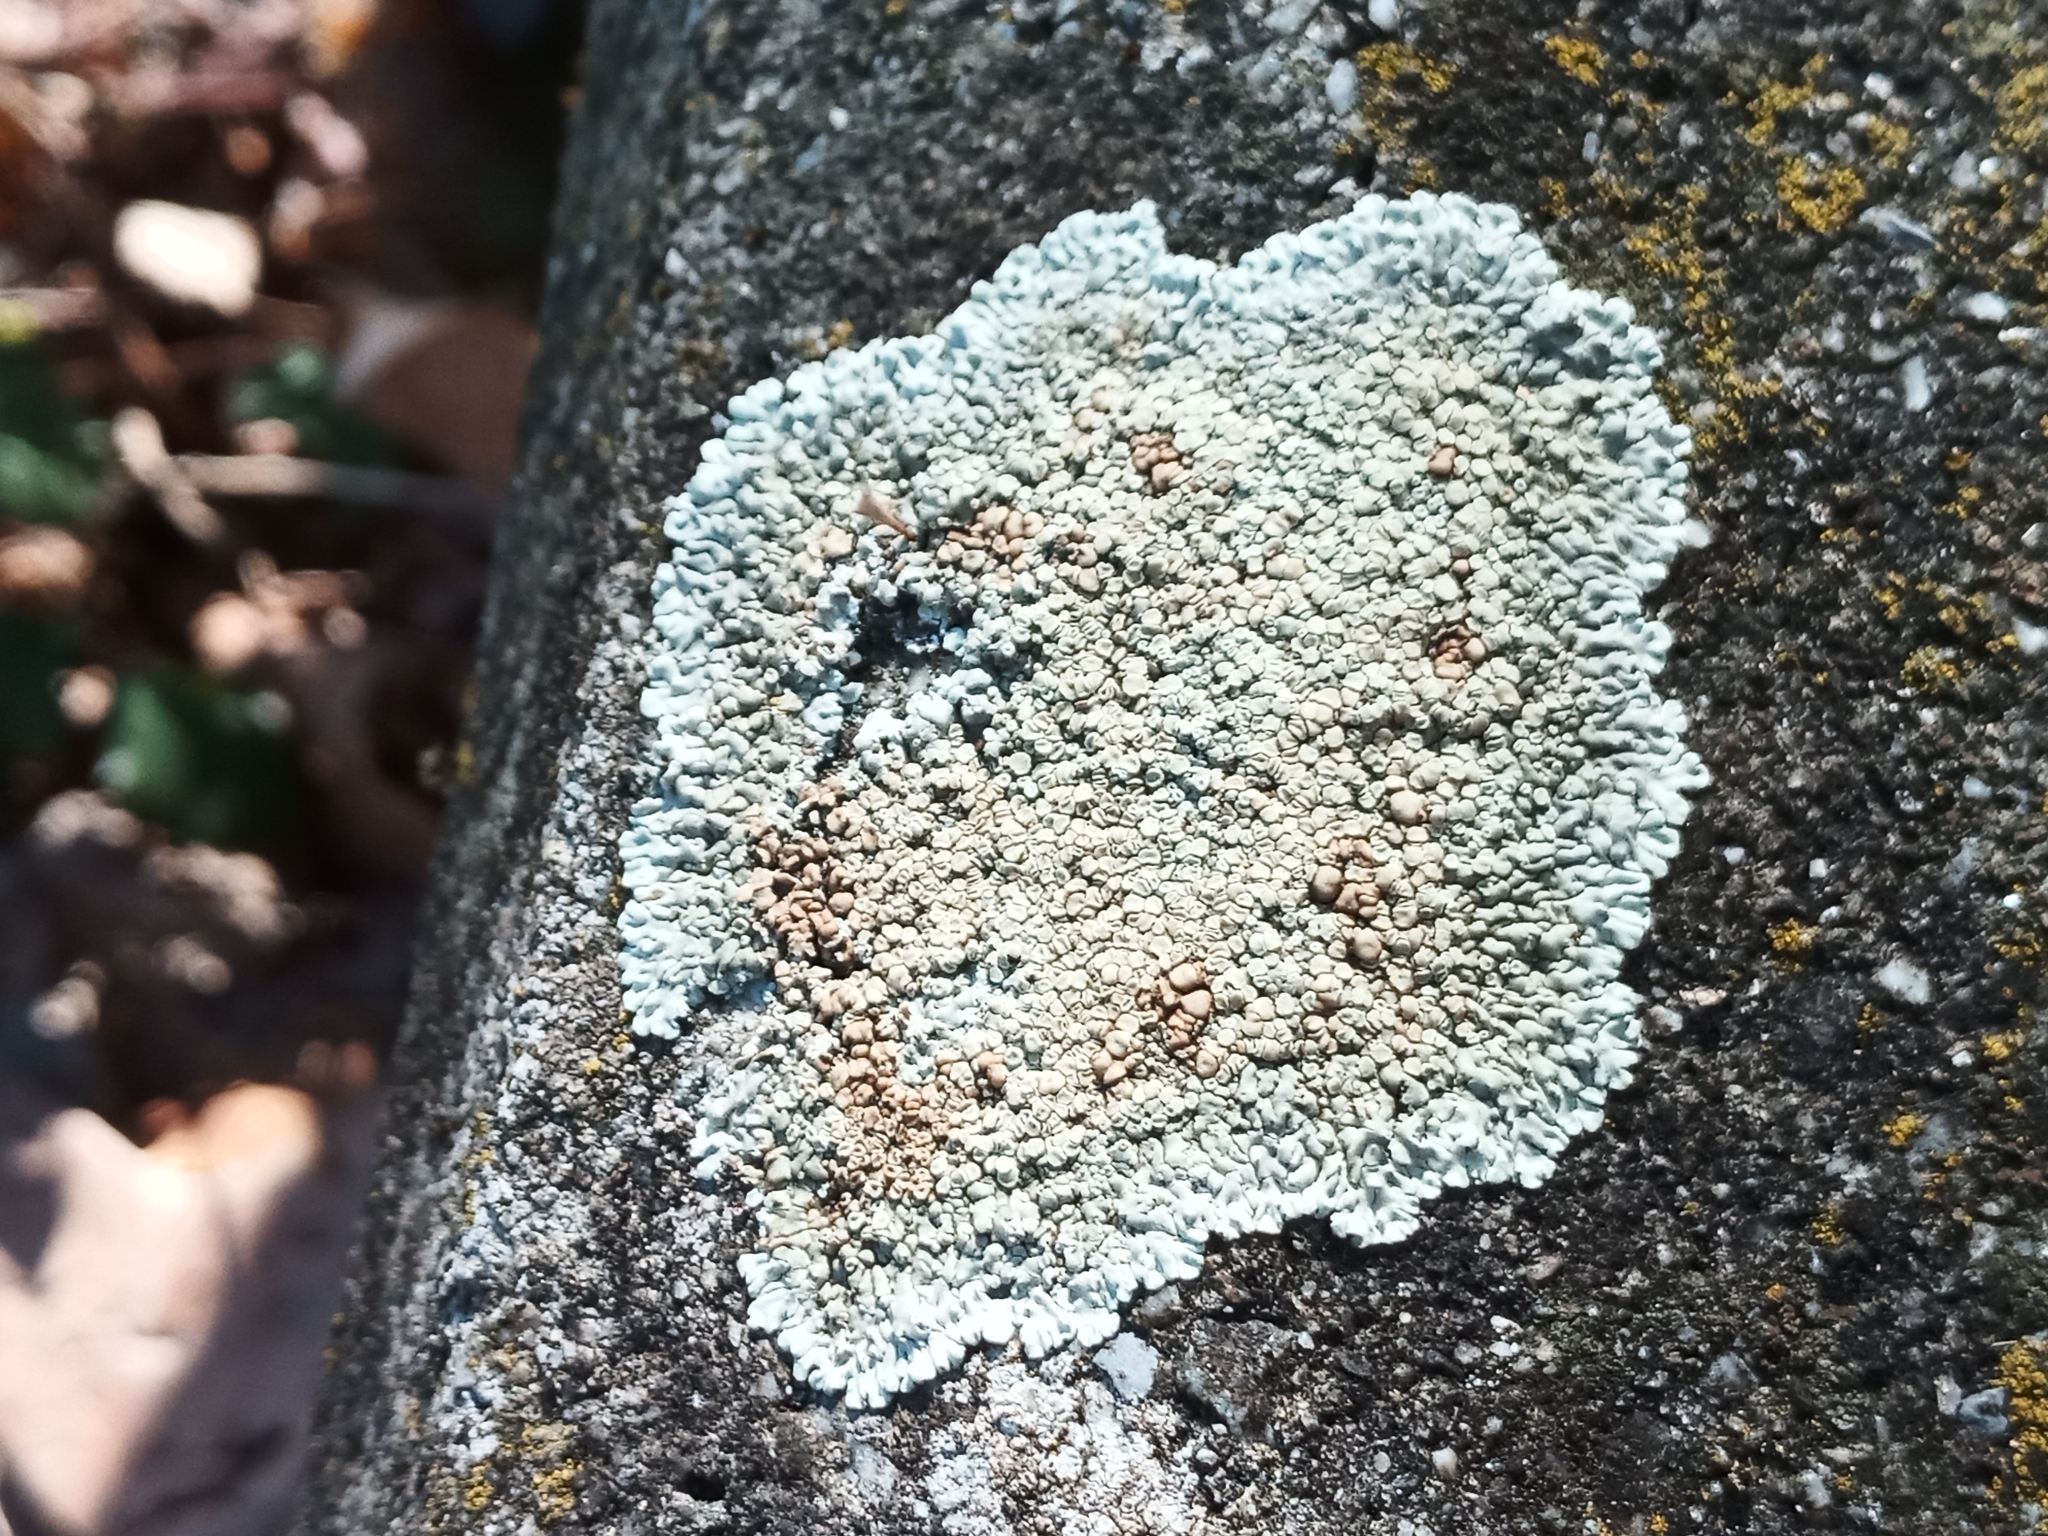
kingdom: Fungi
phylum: Ascomycota
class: Lecanoromycetes
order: Lecanorales
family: Lecanoraceae
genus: Protoparmeliopsis
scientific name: Protoparmeliopsis muralis
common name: Stonewall rim lichen
